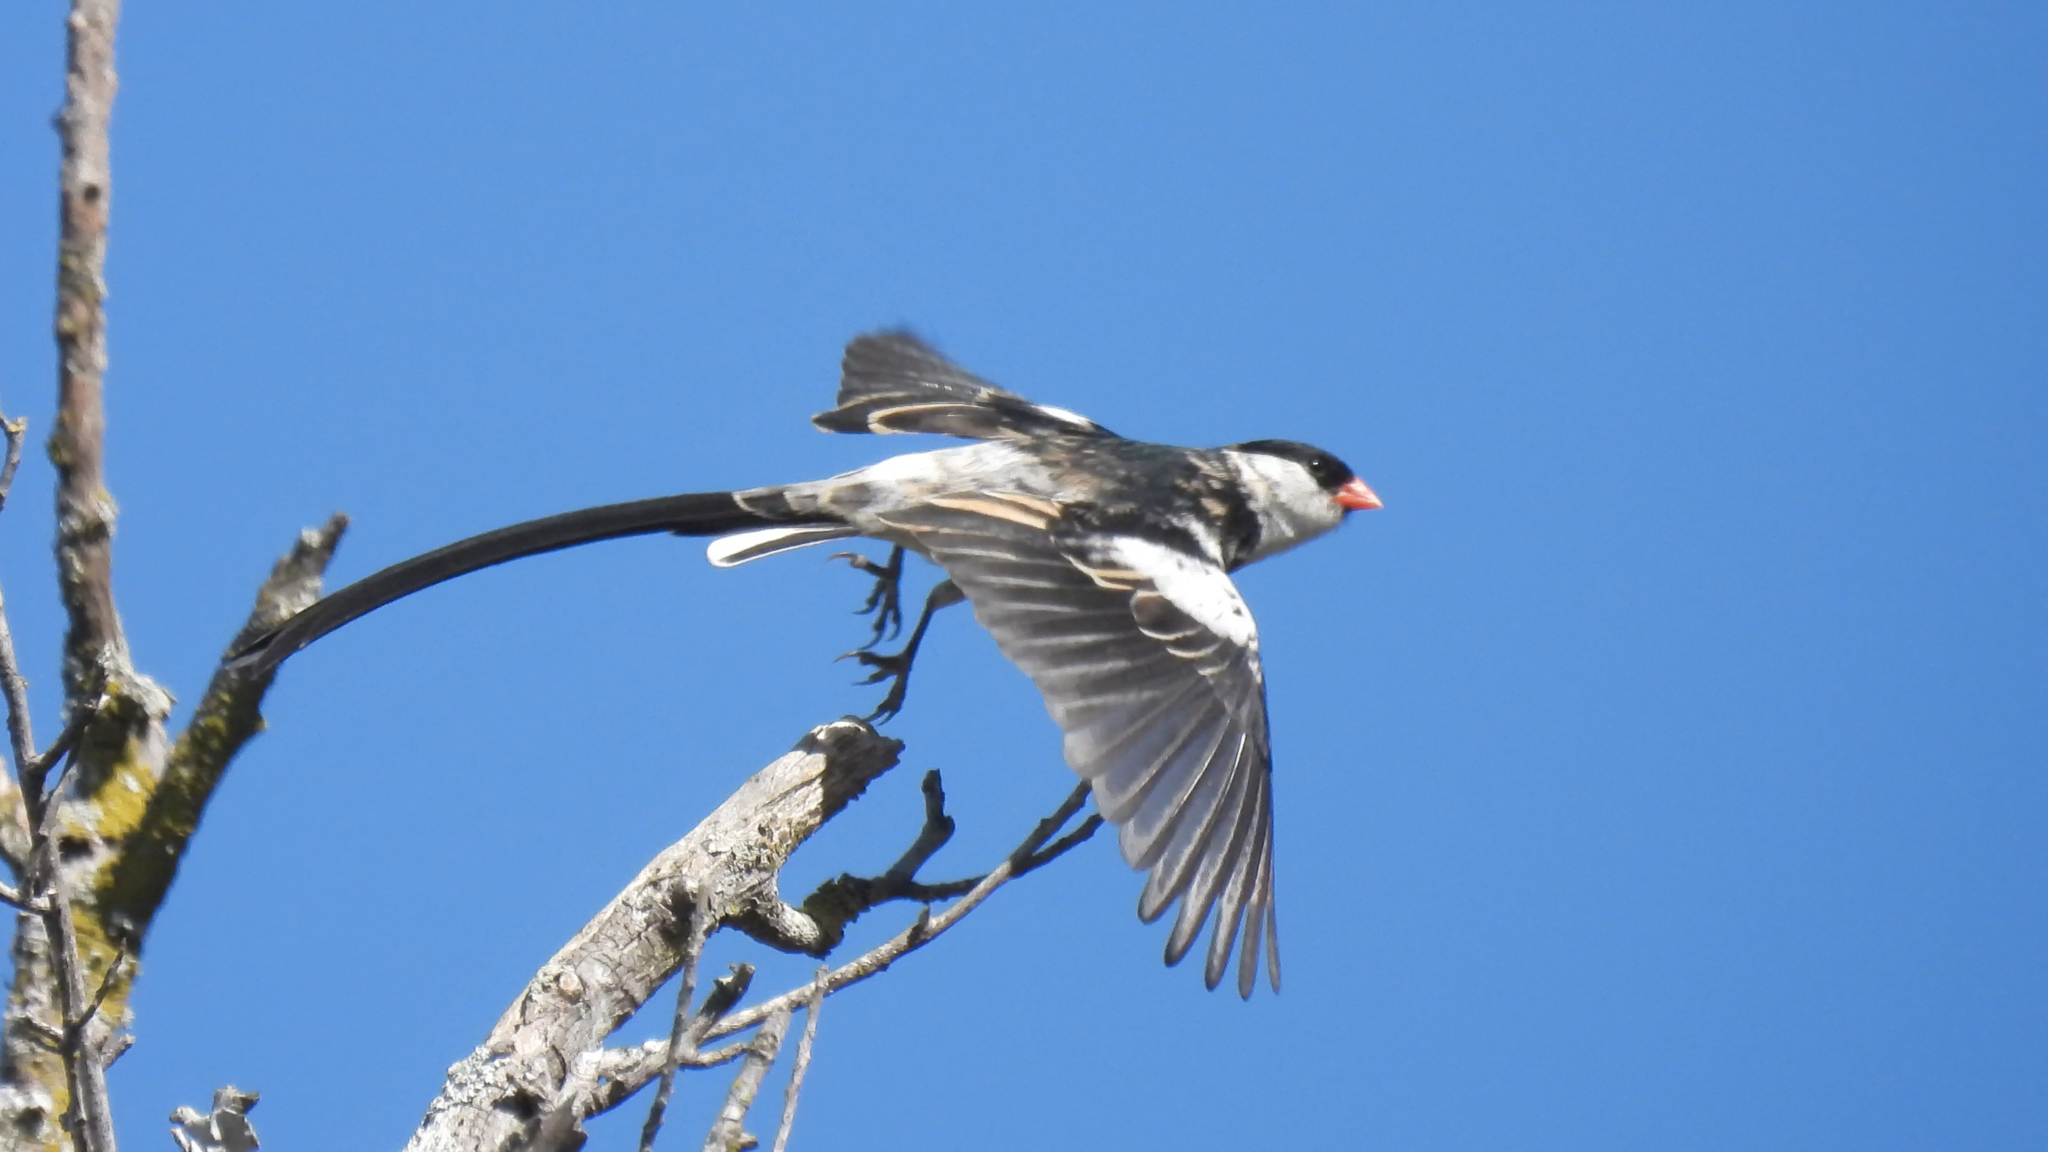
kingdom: Animalia
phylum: Chordata
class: Aves
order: Passeriformes
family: Viduidae
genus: Vidua
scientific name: Vidua macroura
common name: Pin-tailed whydah
